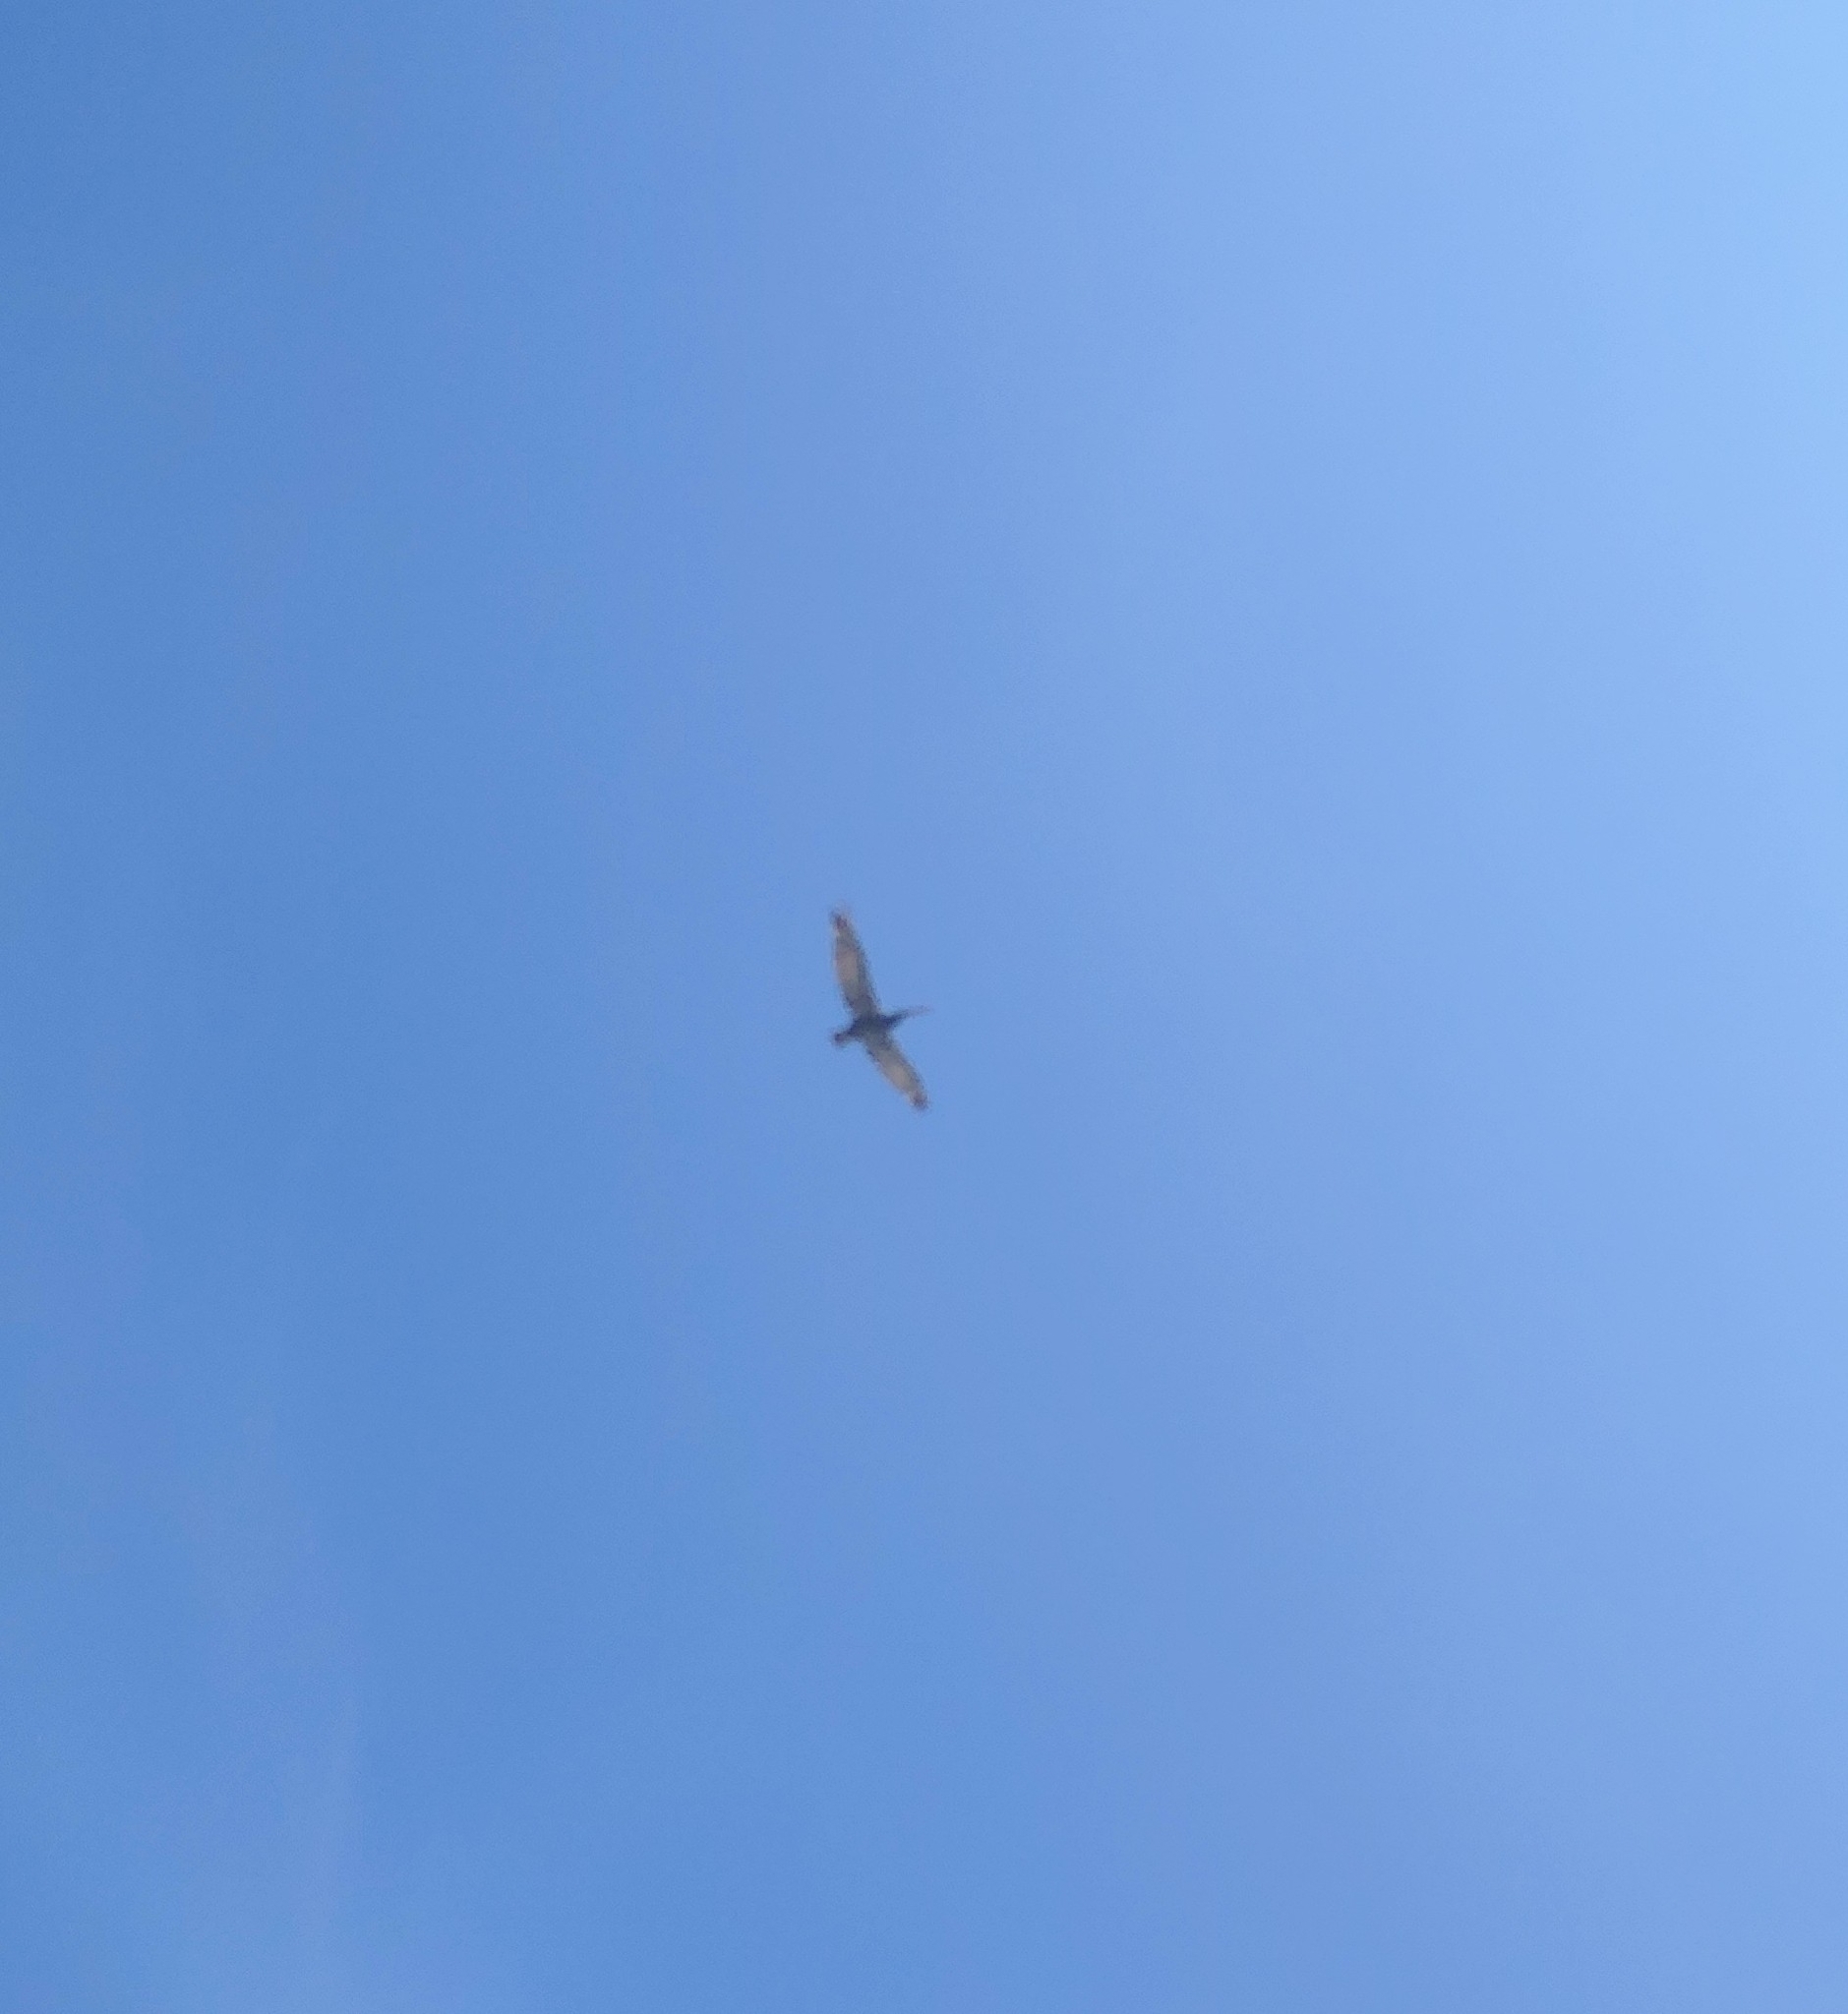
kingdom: Animalia
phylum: Chordata
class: Aves
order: Pelecaniformes
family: Pelecanidae
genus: Pelecanus
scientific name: Pelecanus occidentalis
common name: Brown pelican
